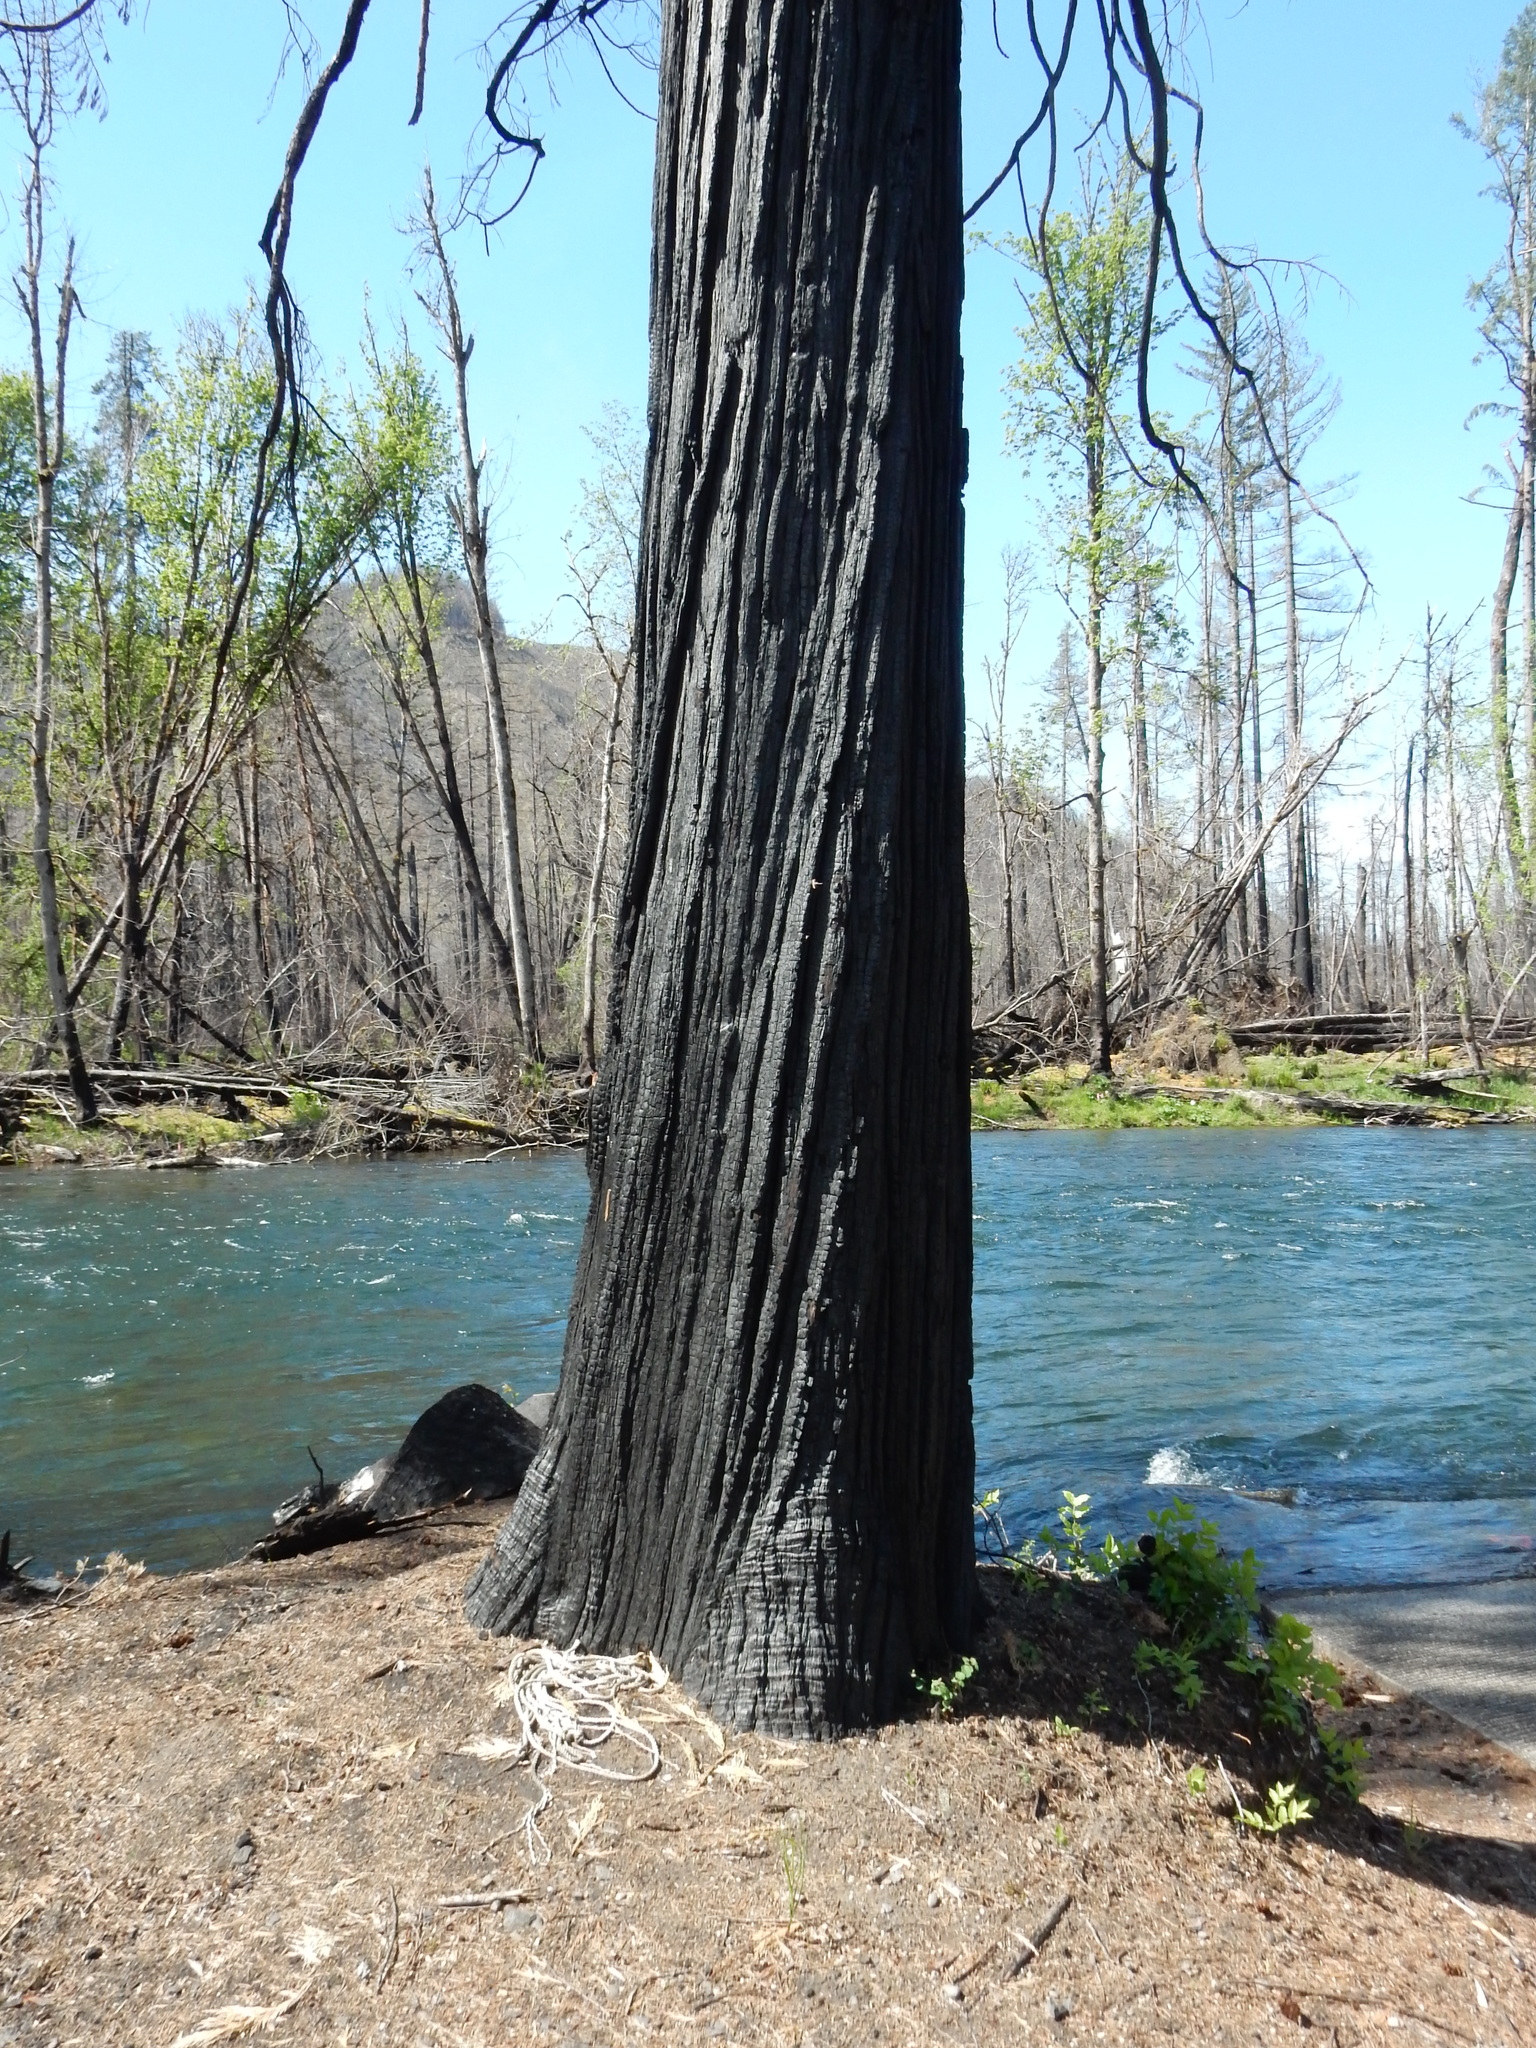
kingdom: Plantae
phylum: Tracheophyta
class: Pinopsida
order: Pinales
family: Cupressaceae
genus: Calocedrus
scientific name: Calocedrus decurrens
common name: Californian incense-cedar
